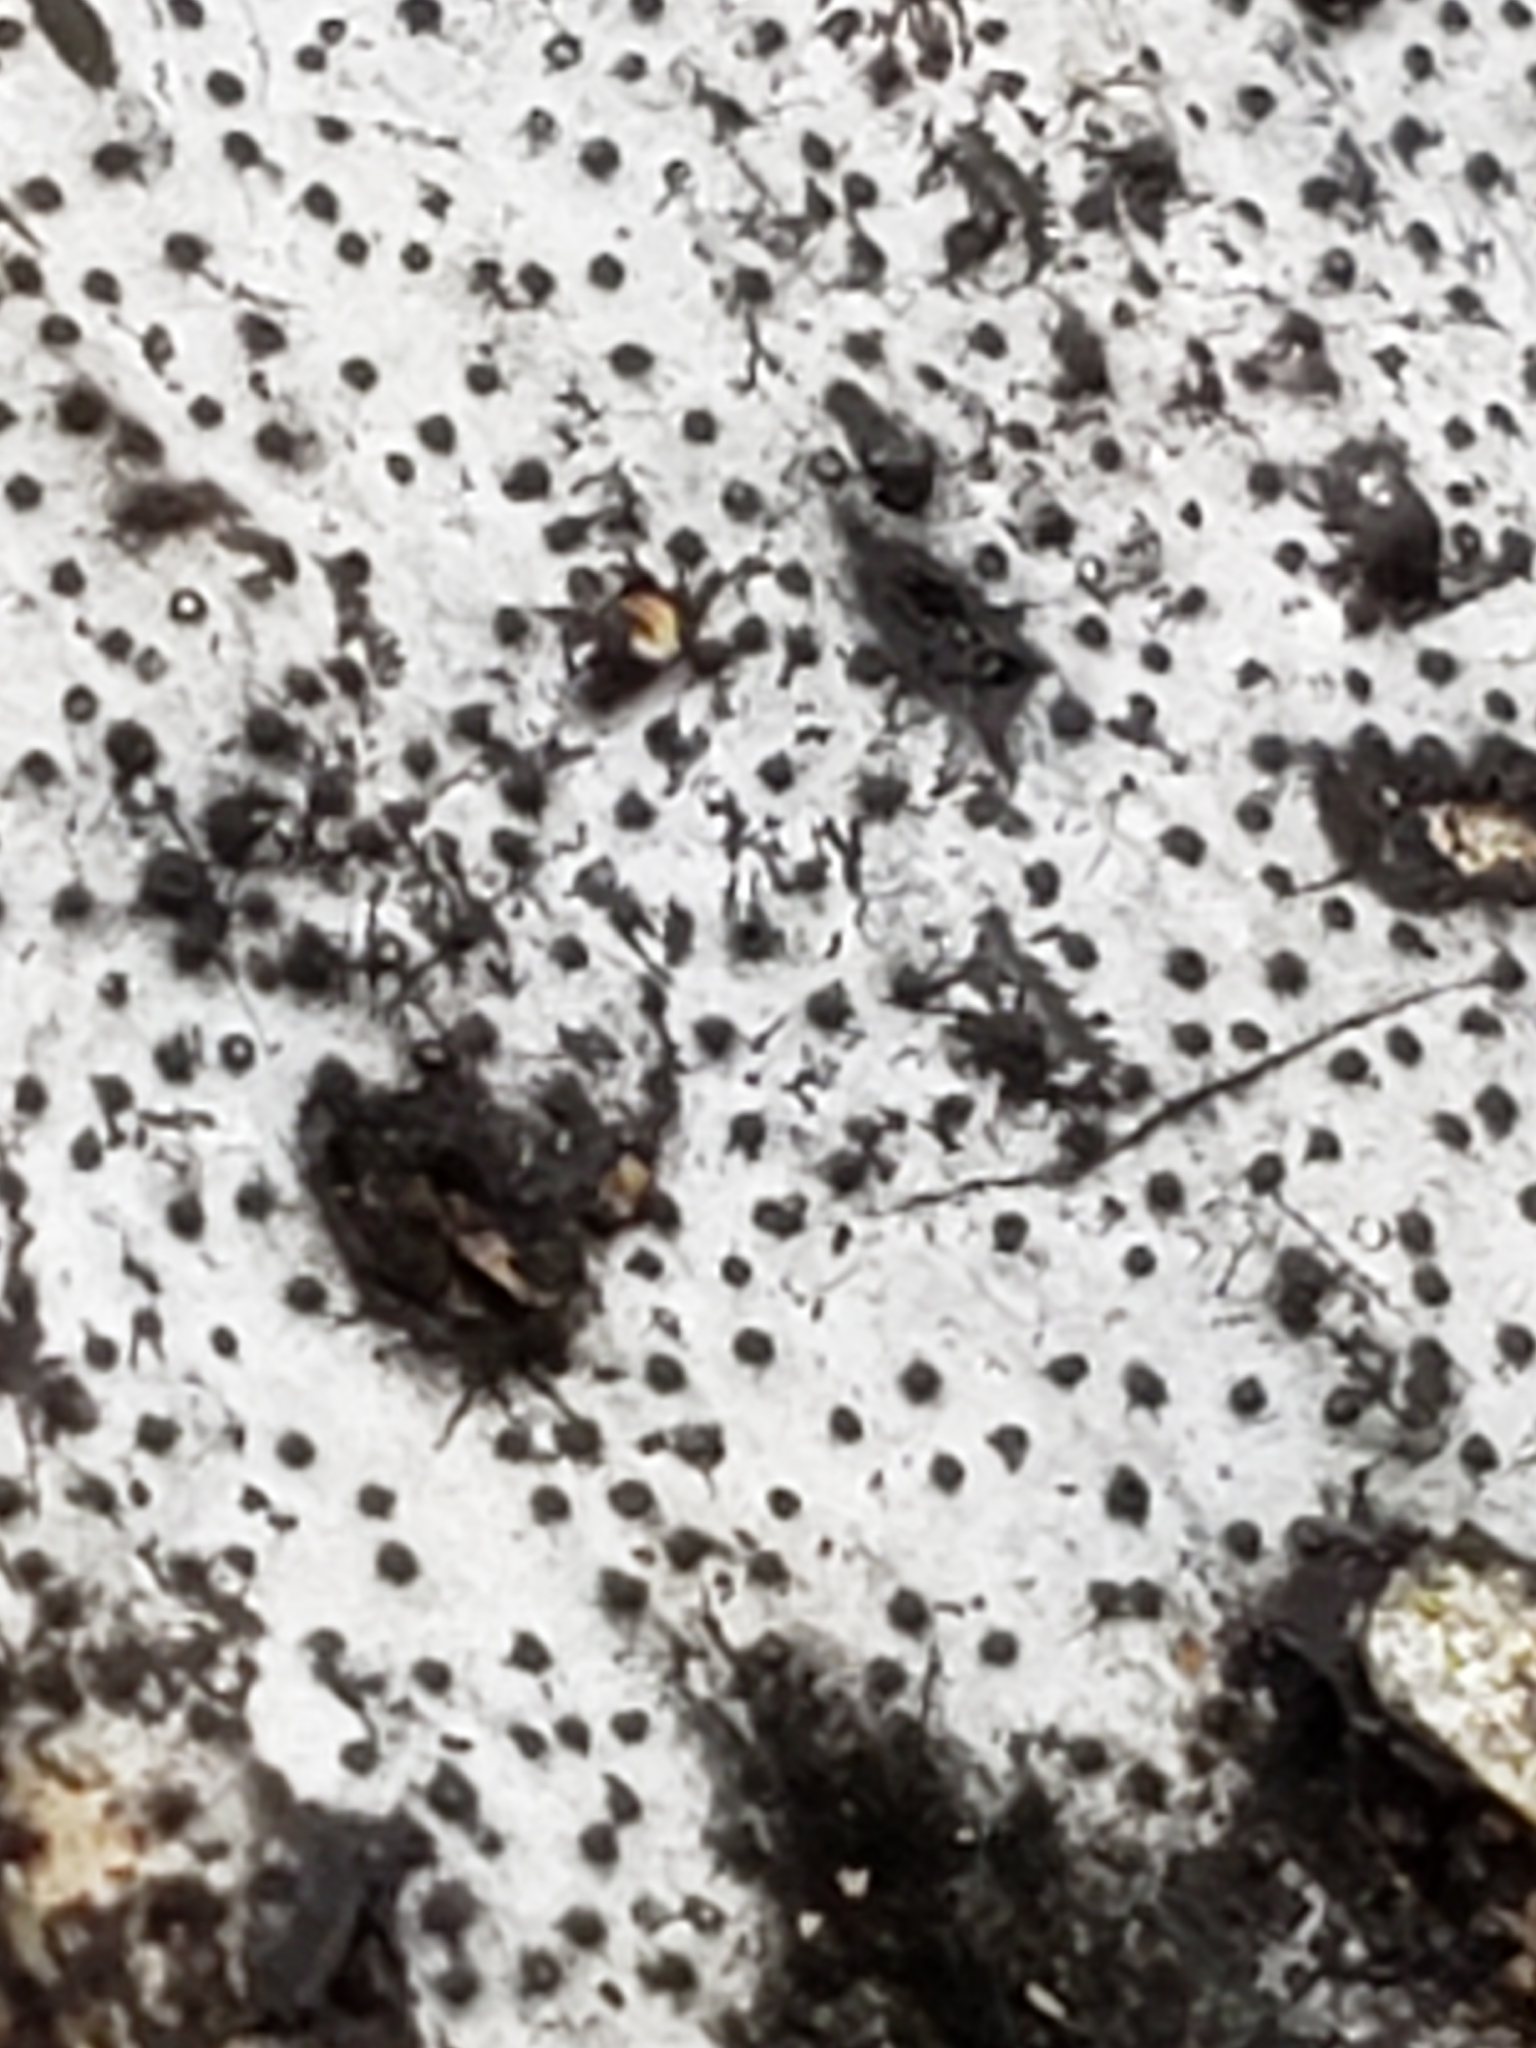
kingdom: Fungi
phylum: Ascomycota
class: Sordariomycetes
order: Xylariales
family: Graphostromataceae
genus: Biscogniauxia
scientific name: Biscogniauxia atropunctata
